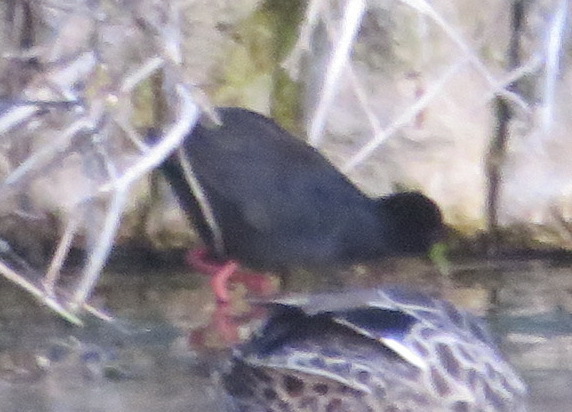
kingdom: Animalia
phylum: Chordata
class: Aves
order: Gruiformes
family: Rallidae
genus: Amaurornis
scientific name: Amaurornis flavirostra
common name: Black crake
